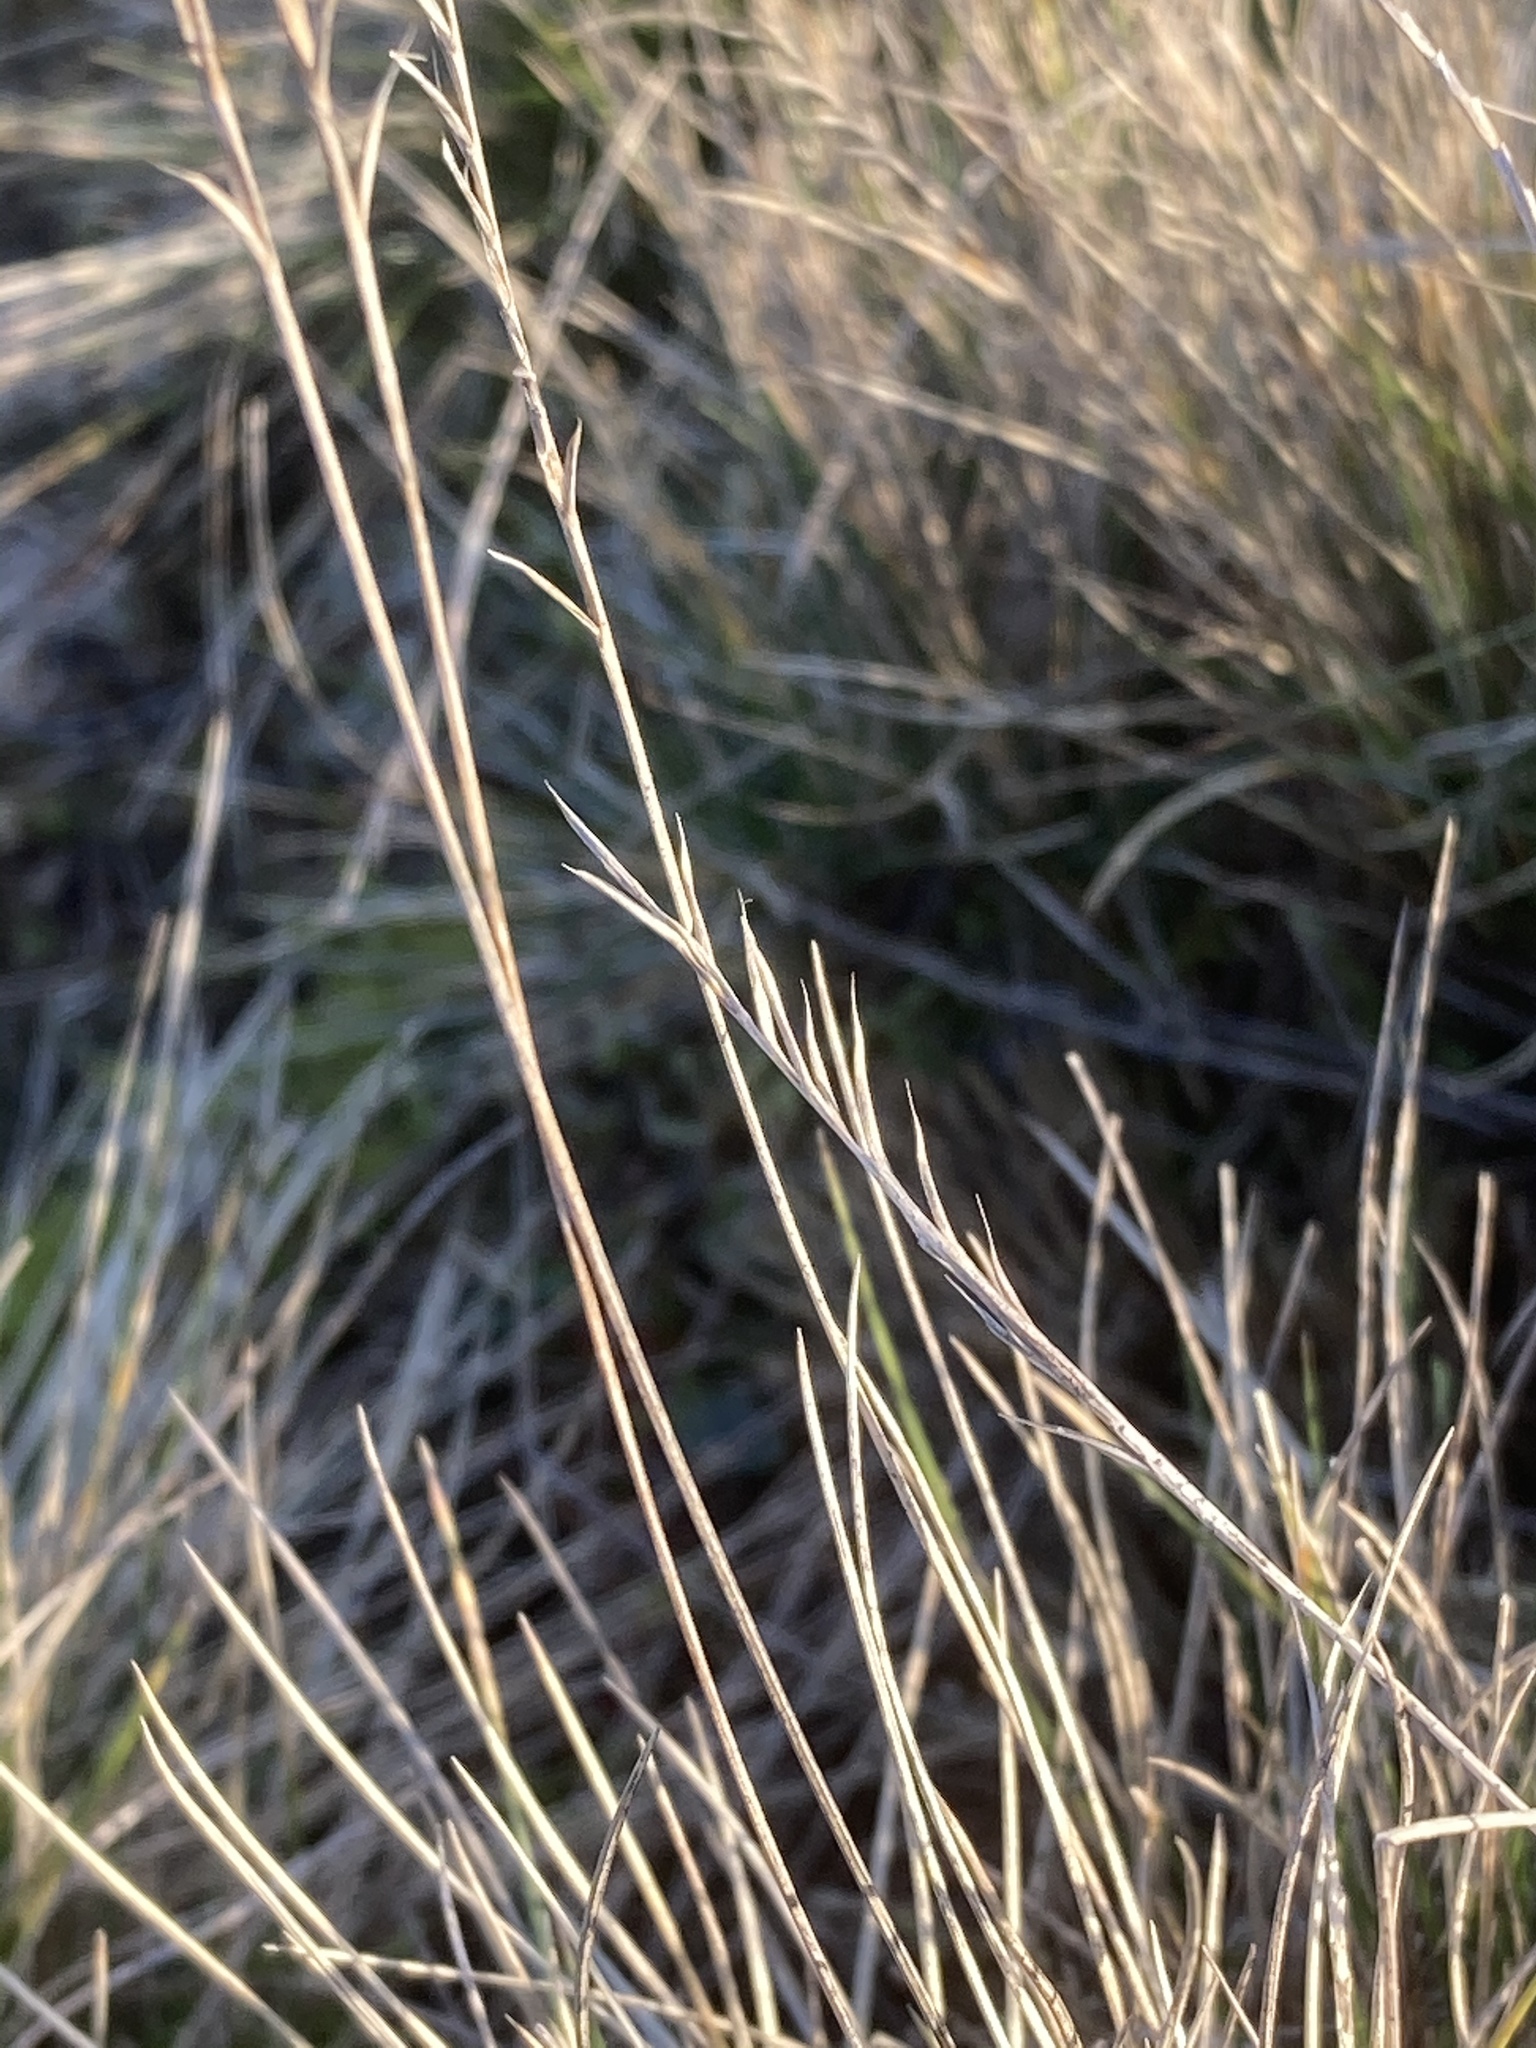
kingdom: Plantae
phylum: Tracheophyta
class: Liliopsida
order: Poales
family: Poaceae
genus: Nardus
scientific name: Nardus stricta
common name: Mat-grass
